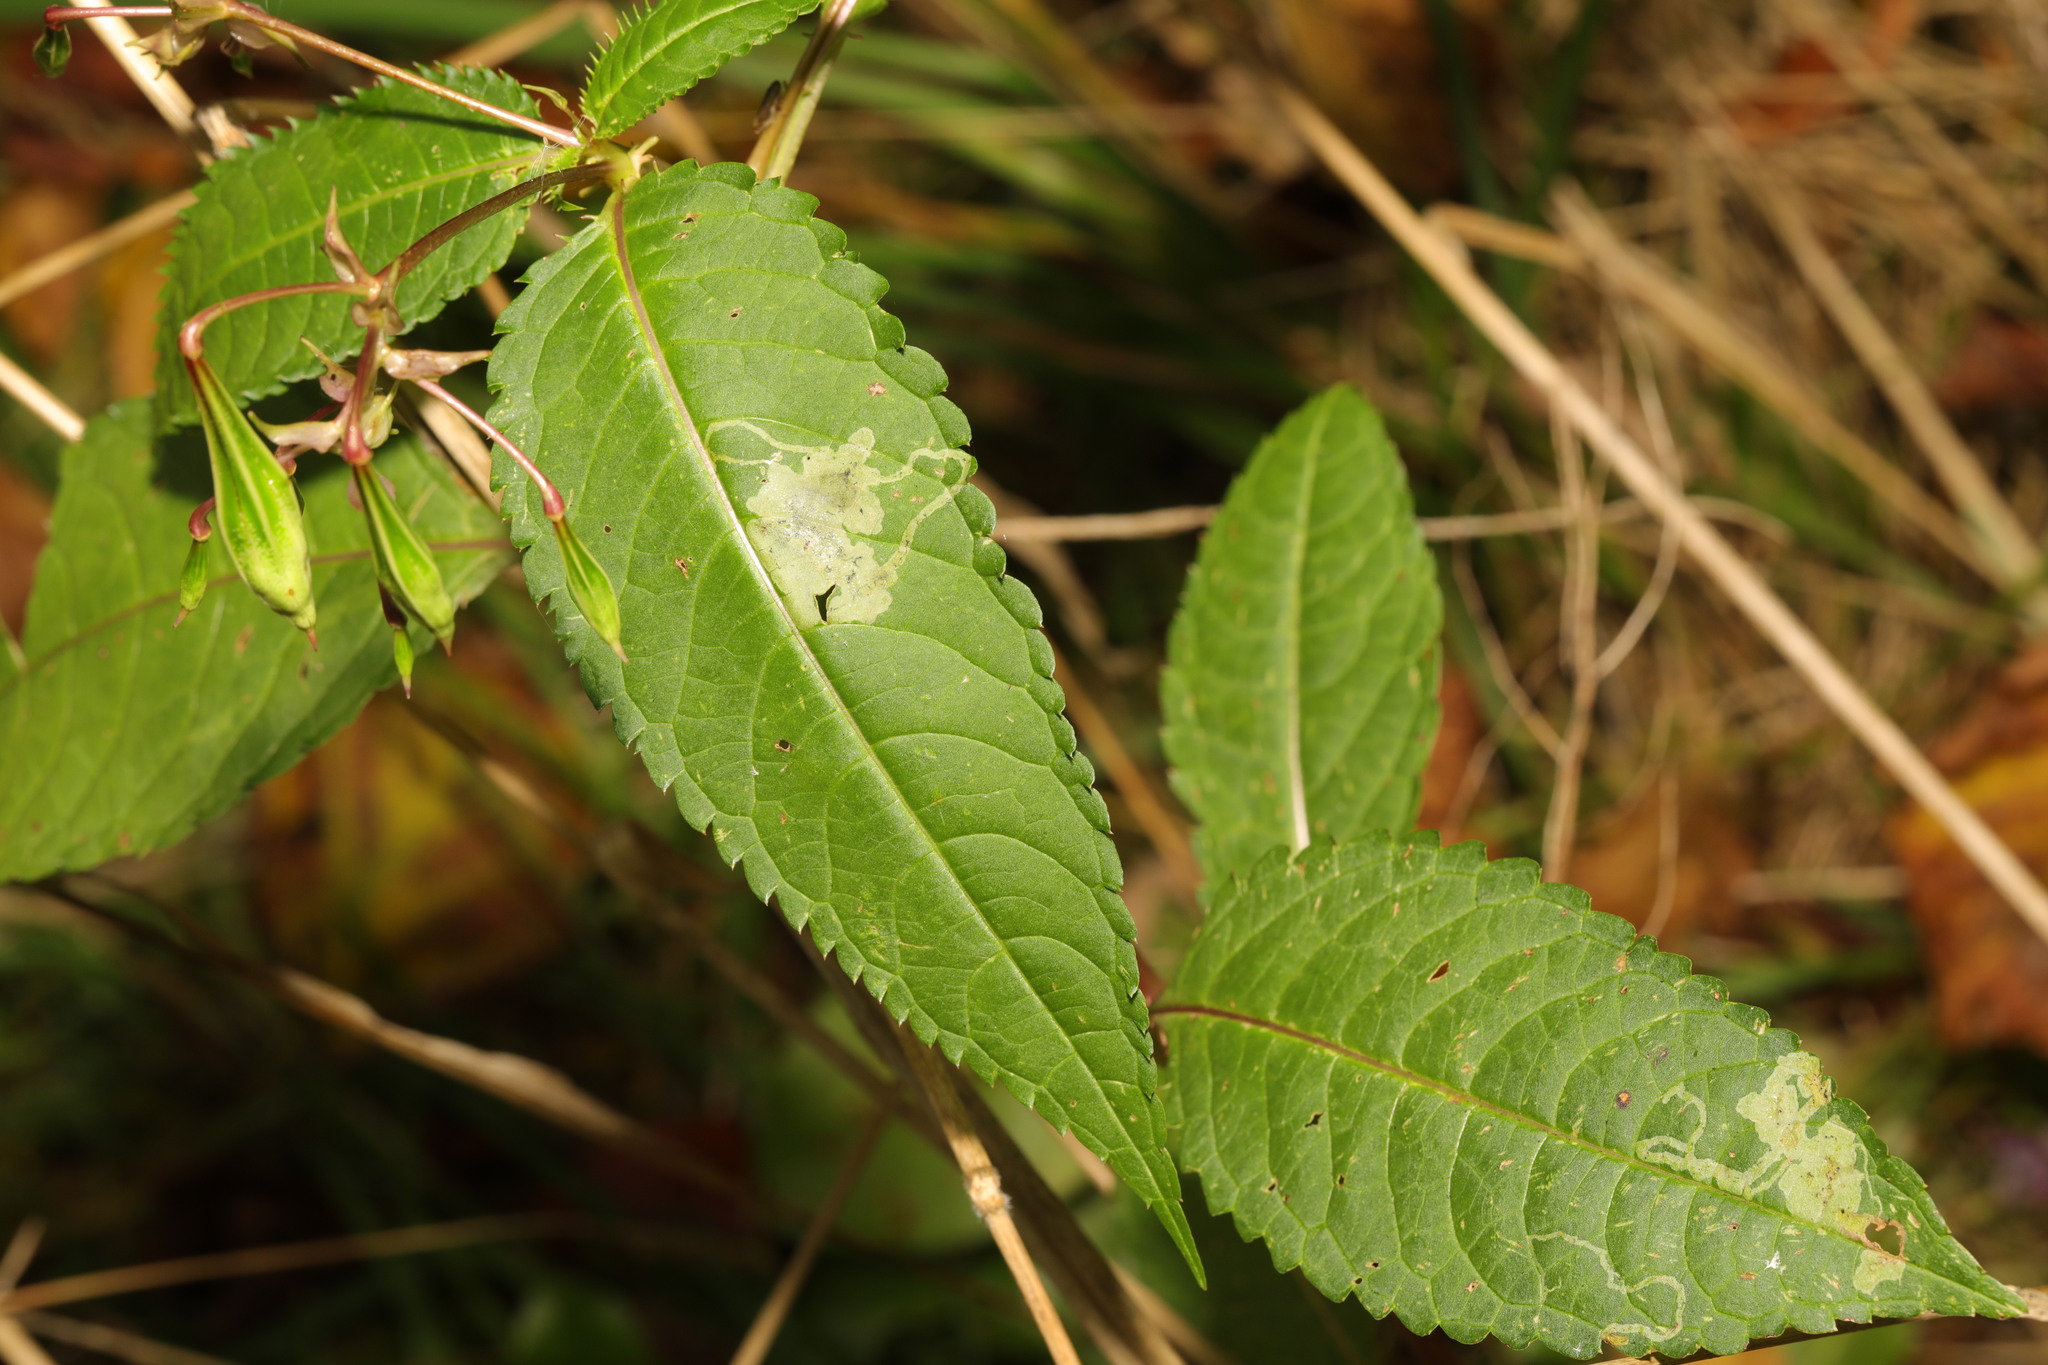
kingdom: Animalia
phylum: Arthropoda
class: Insecta
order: Diptera
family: Agromyzidae
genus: Phytoliriomyza
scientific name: Phytoliriomyza melampyga
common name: Jewelweed leaf-miner fly
